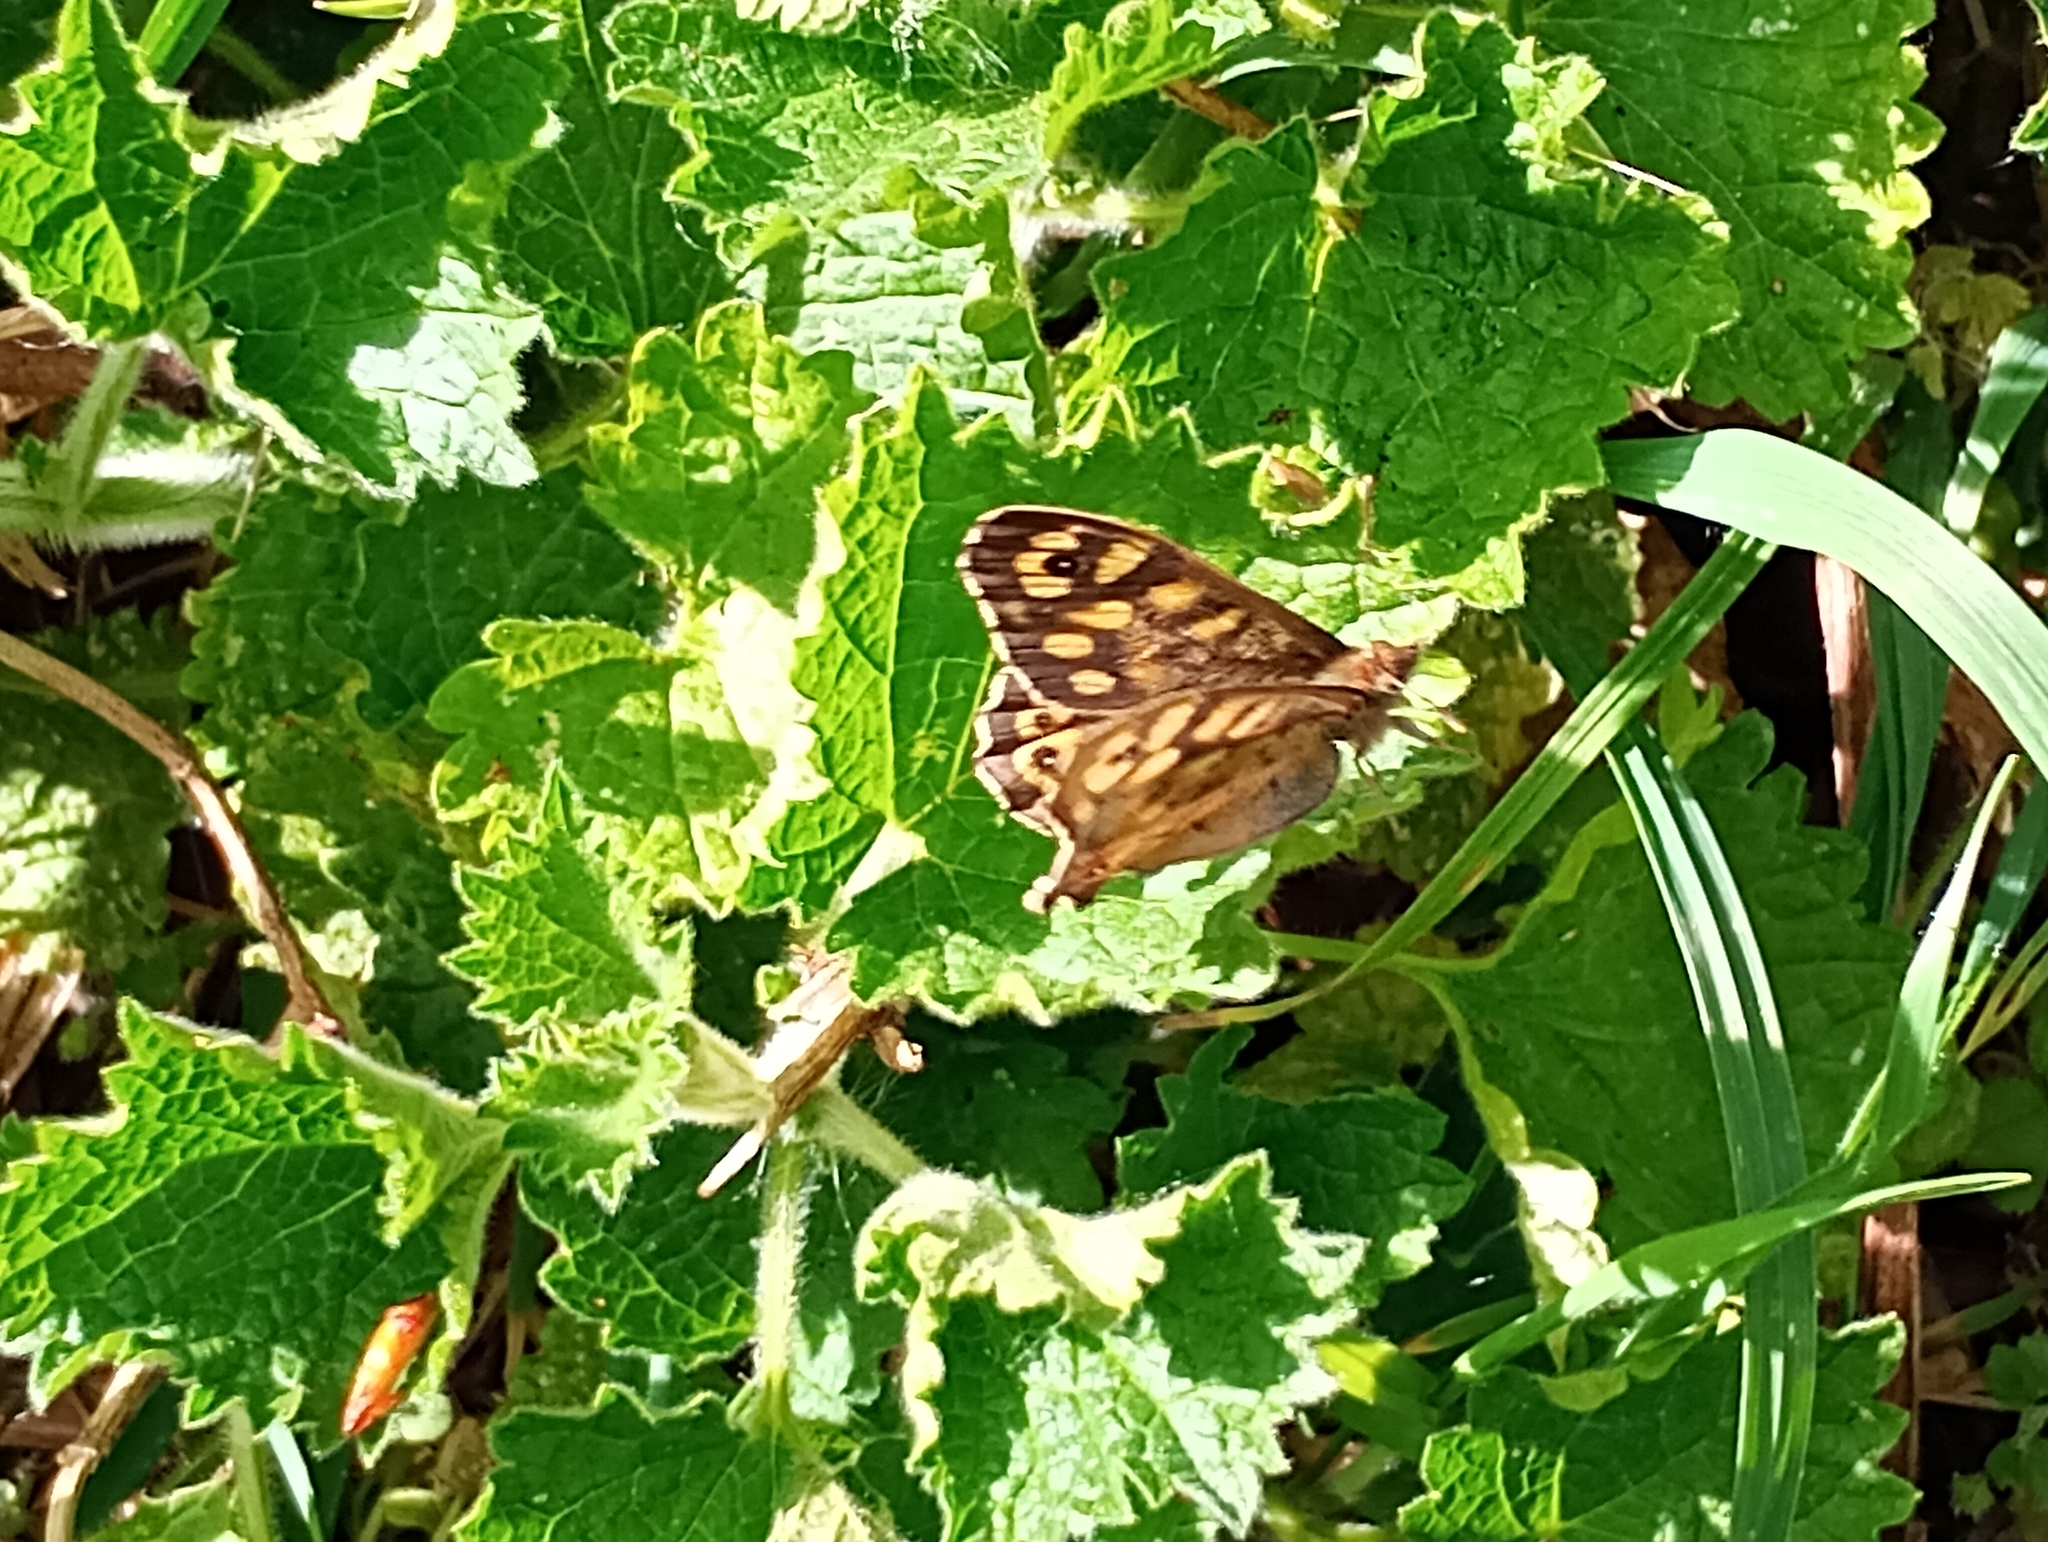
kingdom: Animalia
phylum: Arthropoda
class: Insecta
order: Lepidoptera
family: Nymphalidae
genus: Pararge
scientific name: Pararge aegeria
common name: Speckled wood
